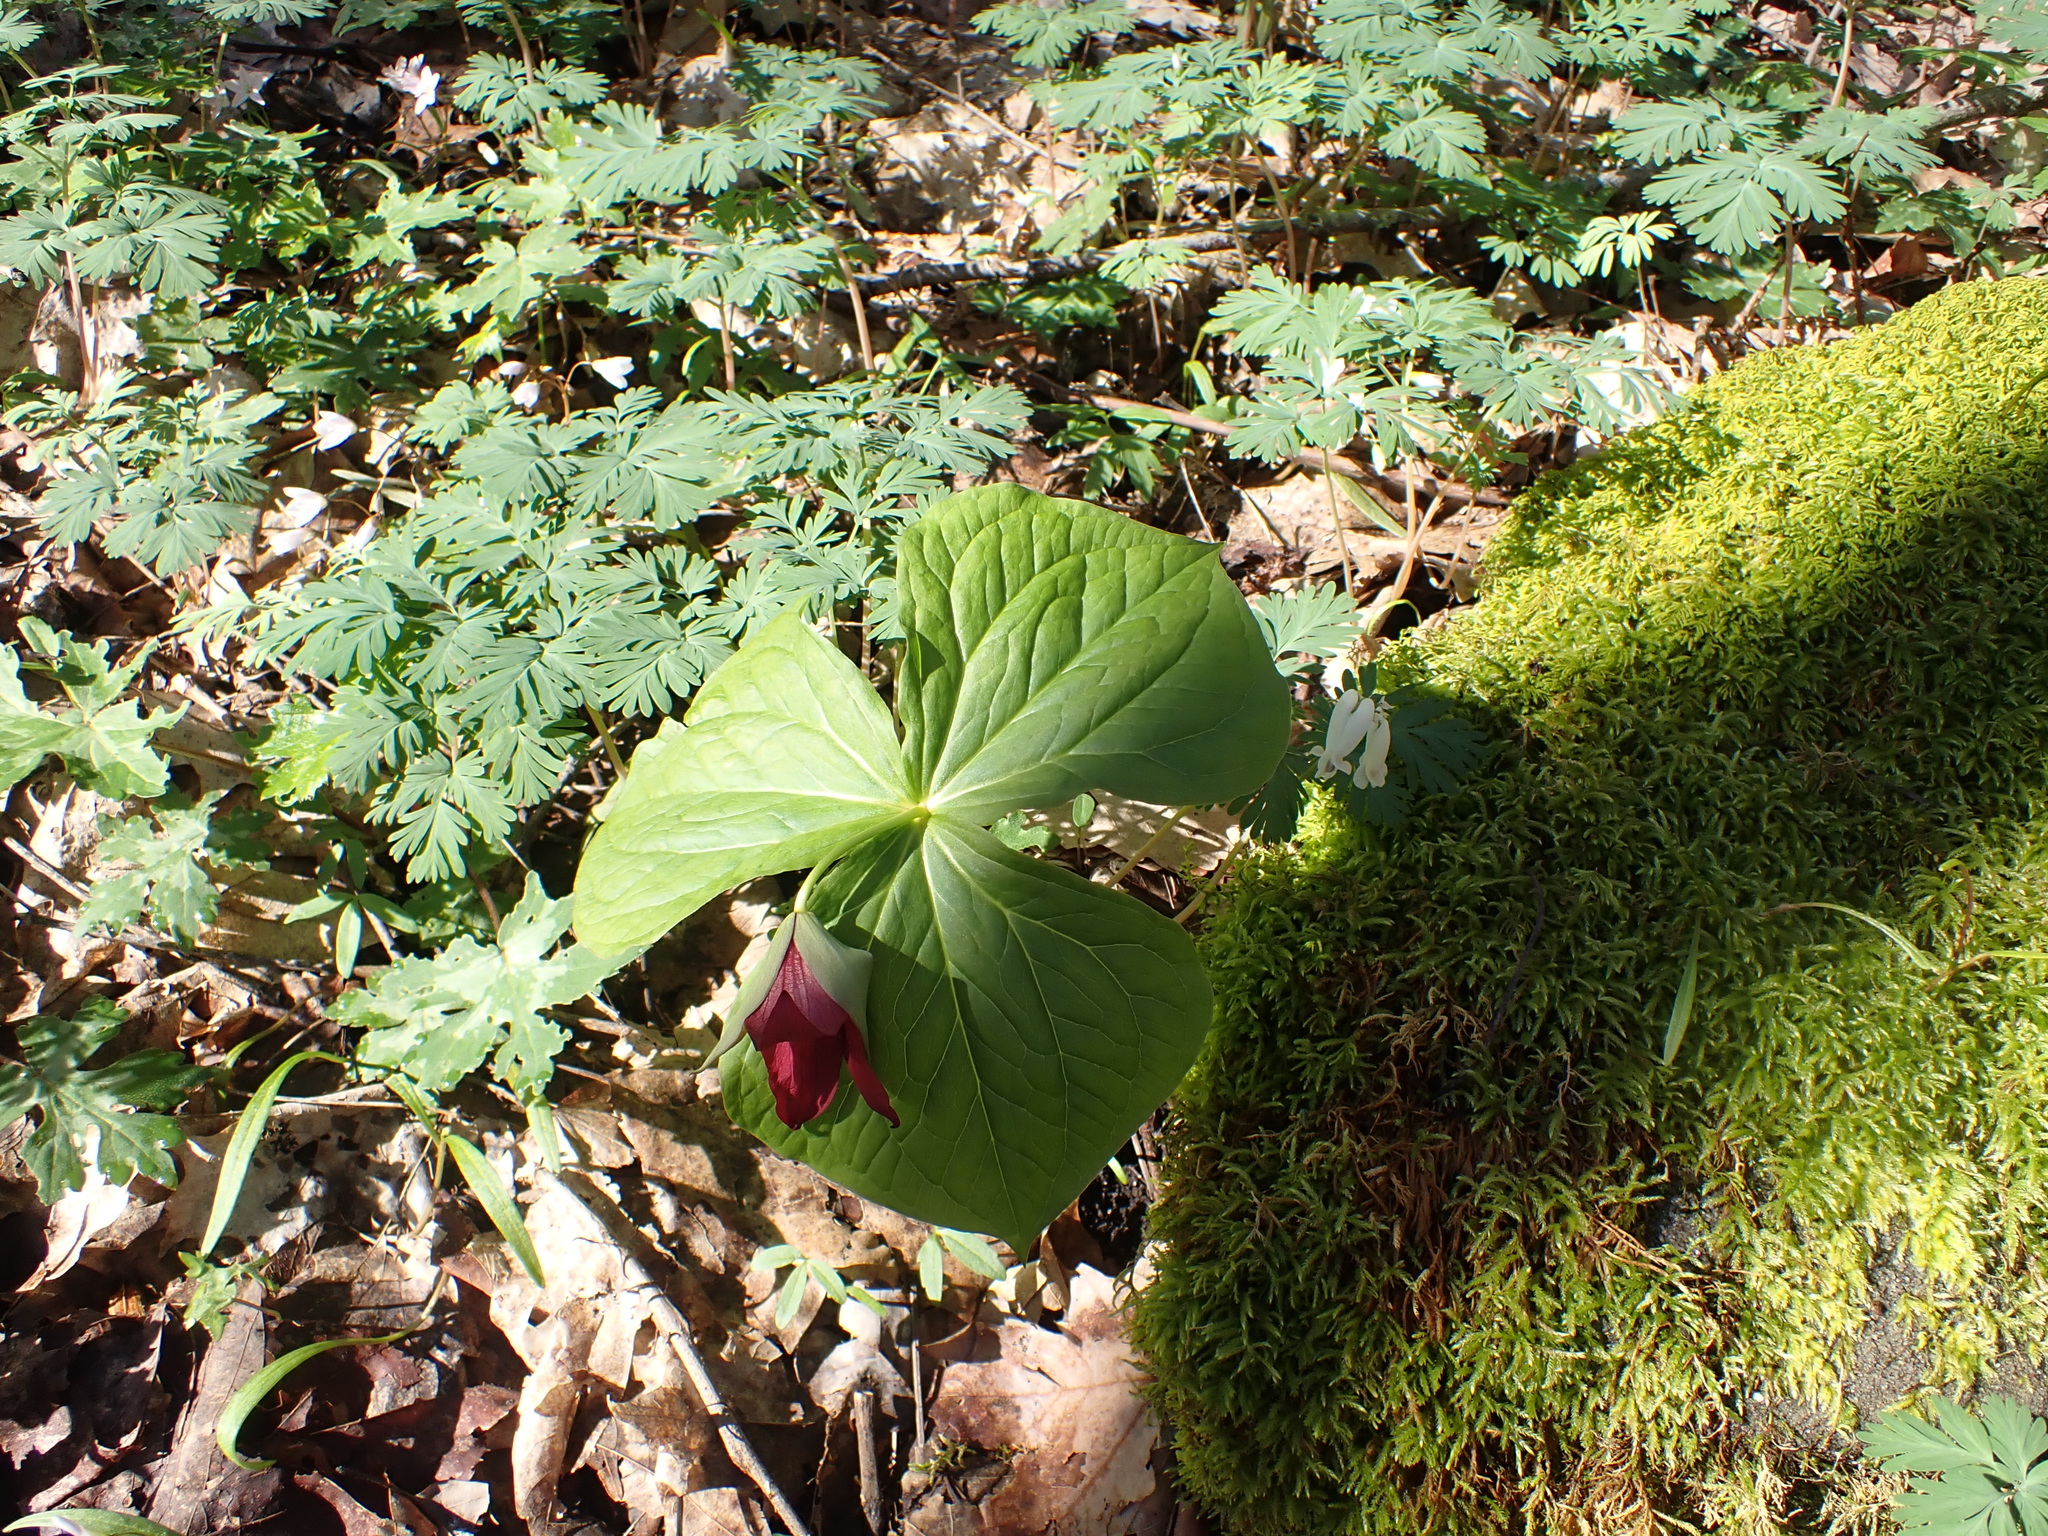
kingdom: Plantae
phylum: Tracheophyta
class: Liliopsida
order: Liliales
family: Melanthiaceae
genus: Trillium
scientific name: Trillium erectum
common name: Purple trillium
